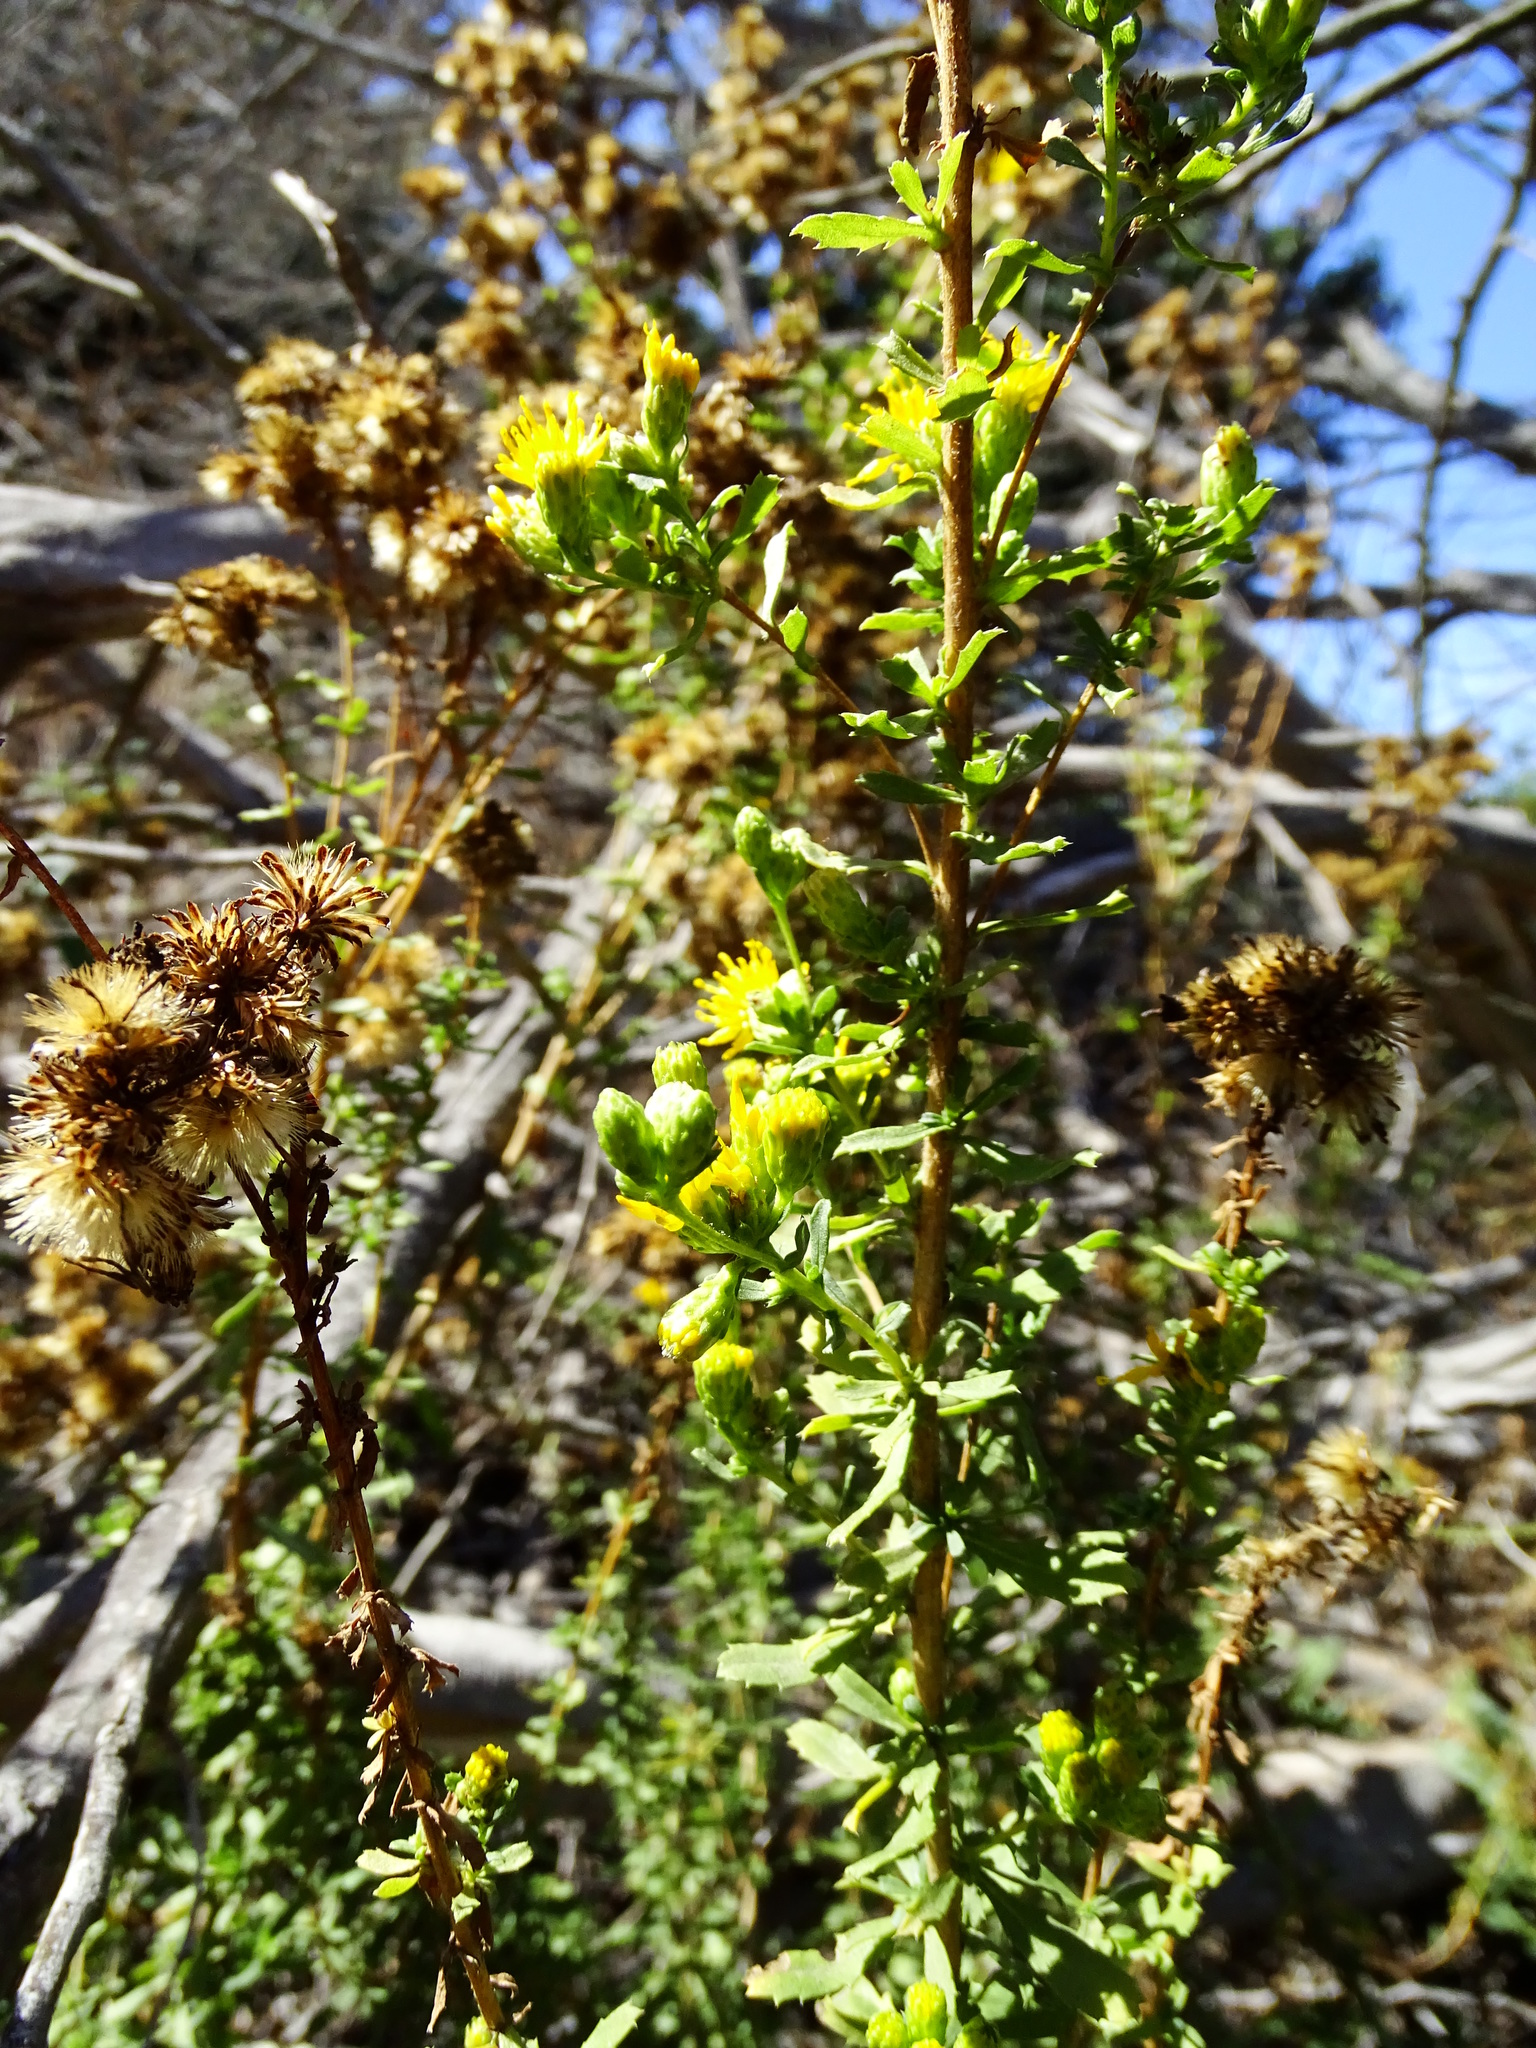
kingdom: Plantae
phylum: Tracheophyta
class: Magnoliopsida
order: Asterales
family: Asteraceae
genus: Isocoma
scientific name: Isocoma menziesii
